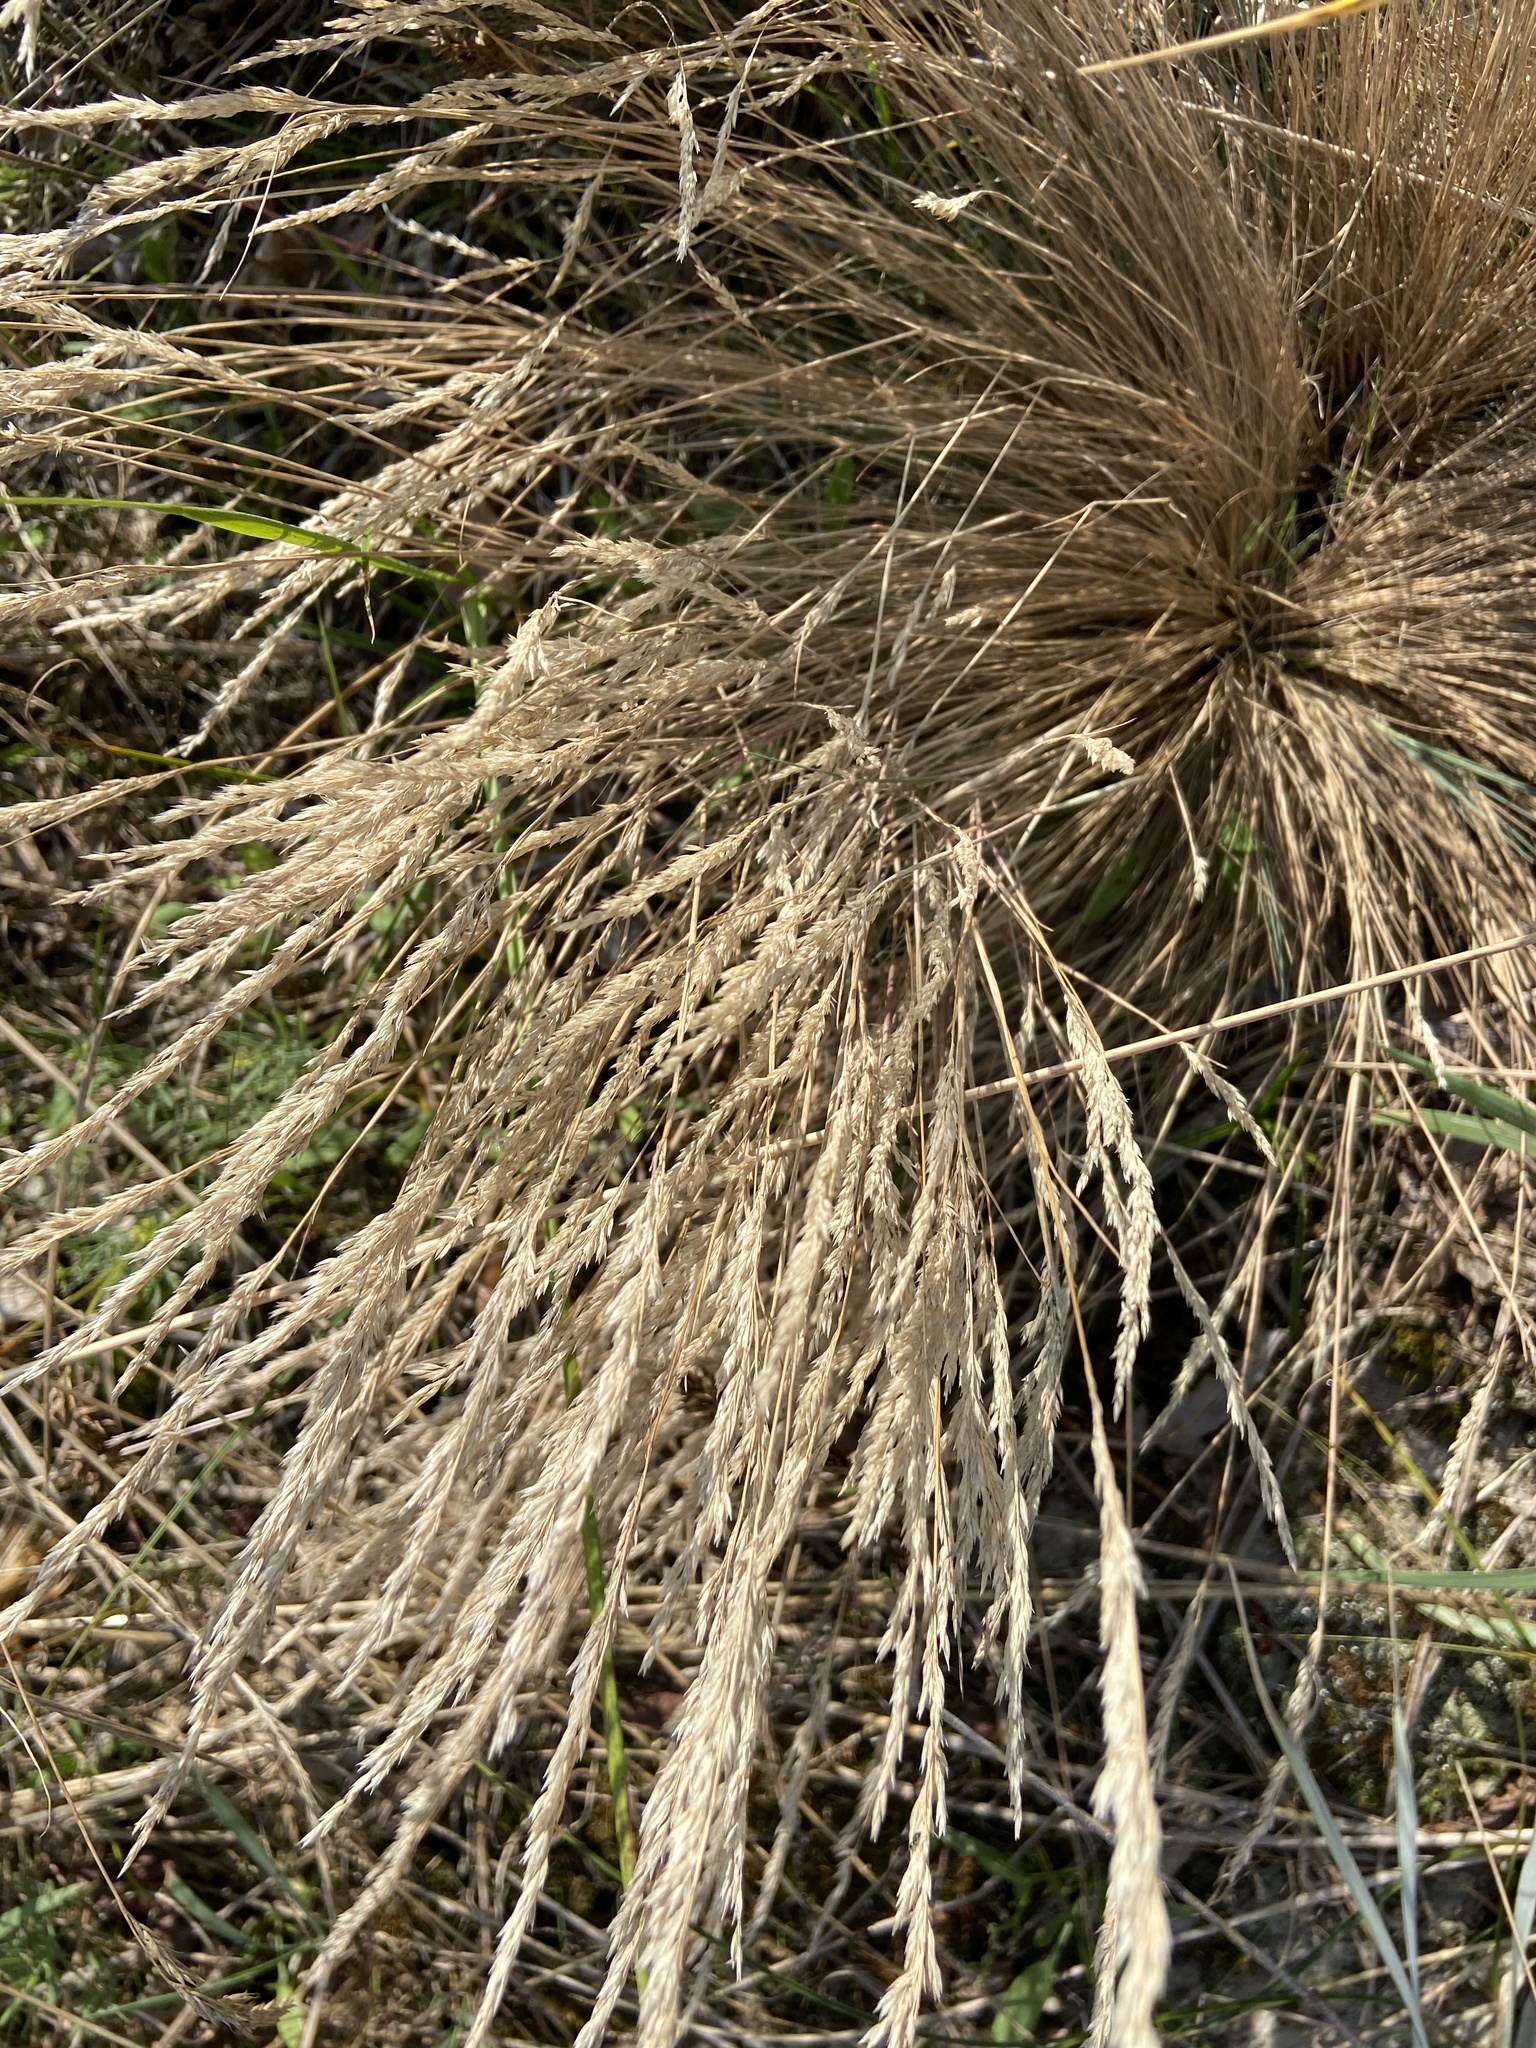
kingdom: Plantae
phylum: Tracheophyta
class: Liliopsida
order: Poales
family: Poaceae
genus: Corynephorus
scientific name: Corynephorus canescens
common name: Grey hair-grass
